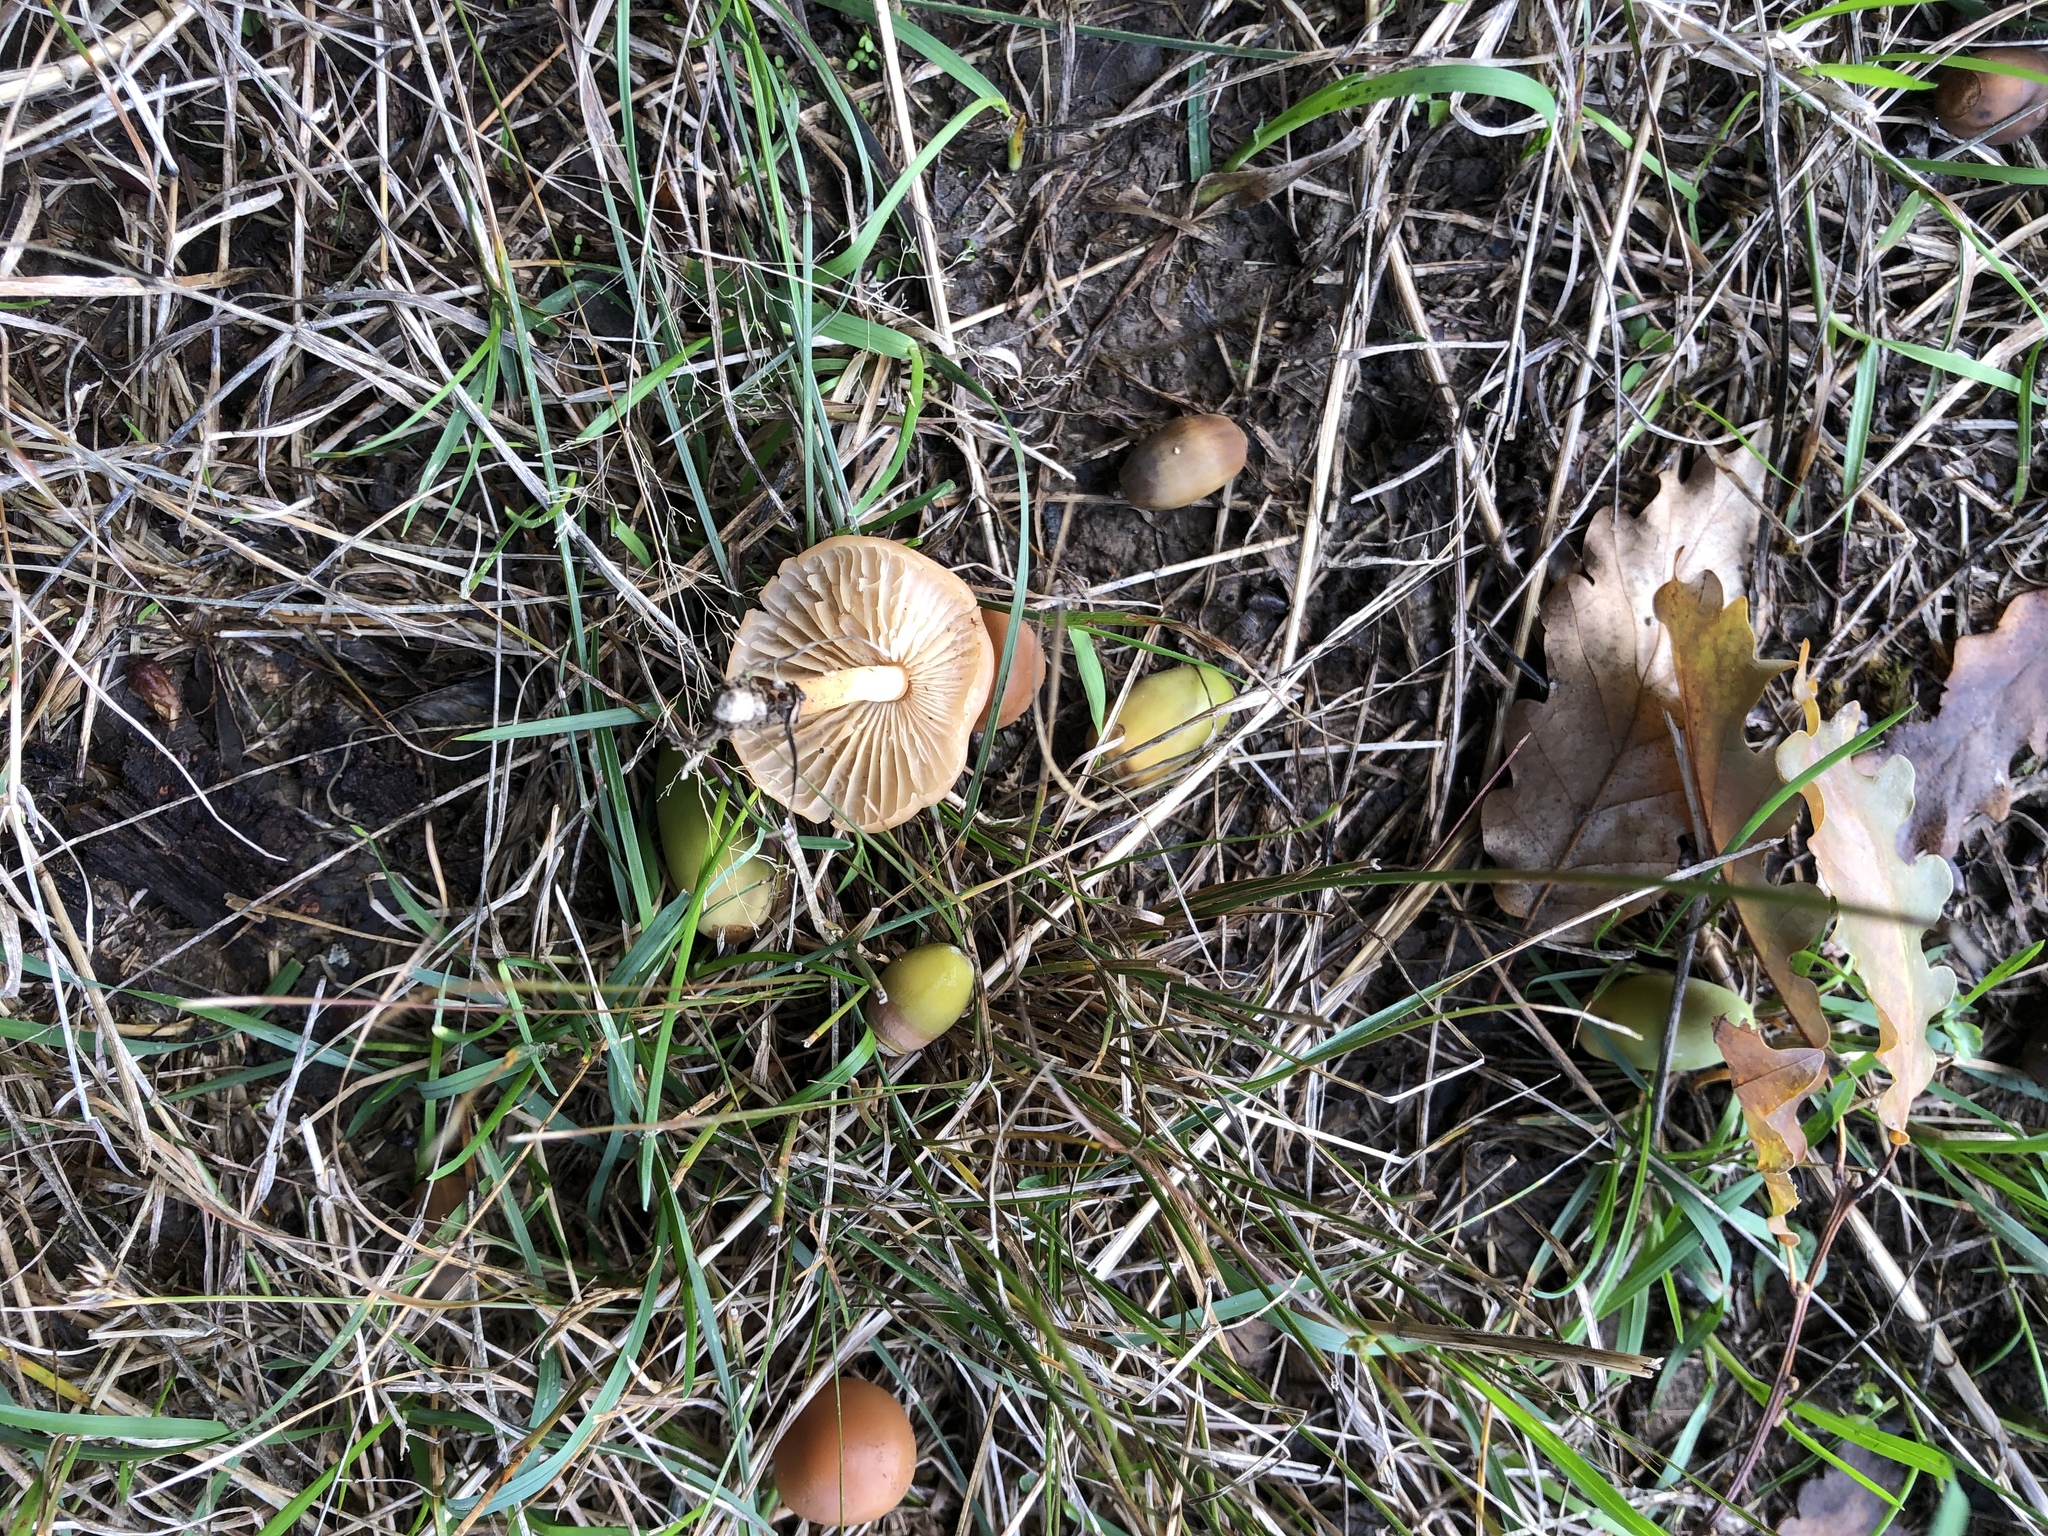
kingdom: Fungi
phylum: Basidiomycota
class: Agaricomycetes
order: Agaricales
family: Marasmiaceae
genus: Marasmius
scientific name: Marasmius oreades
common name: Fairy ring champignon
